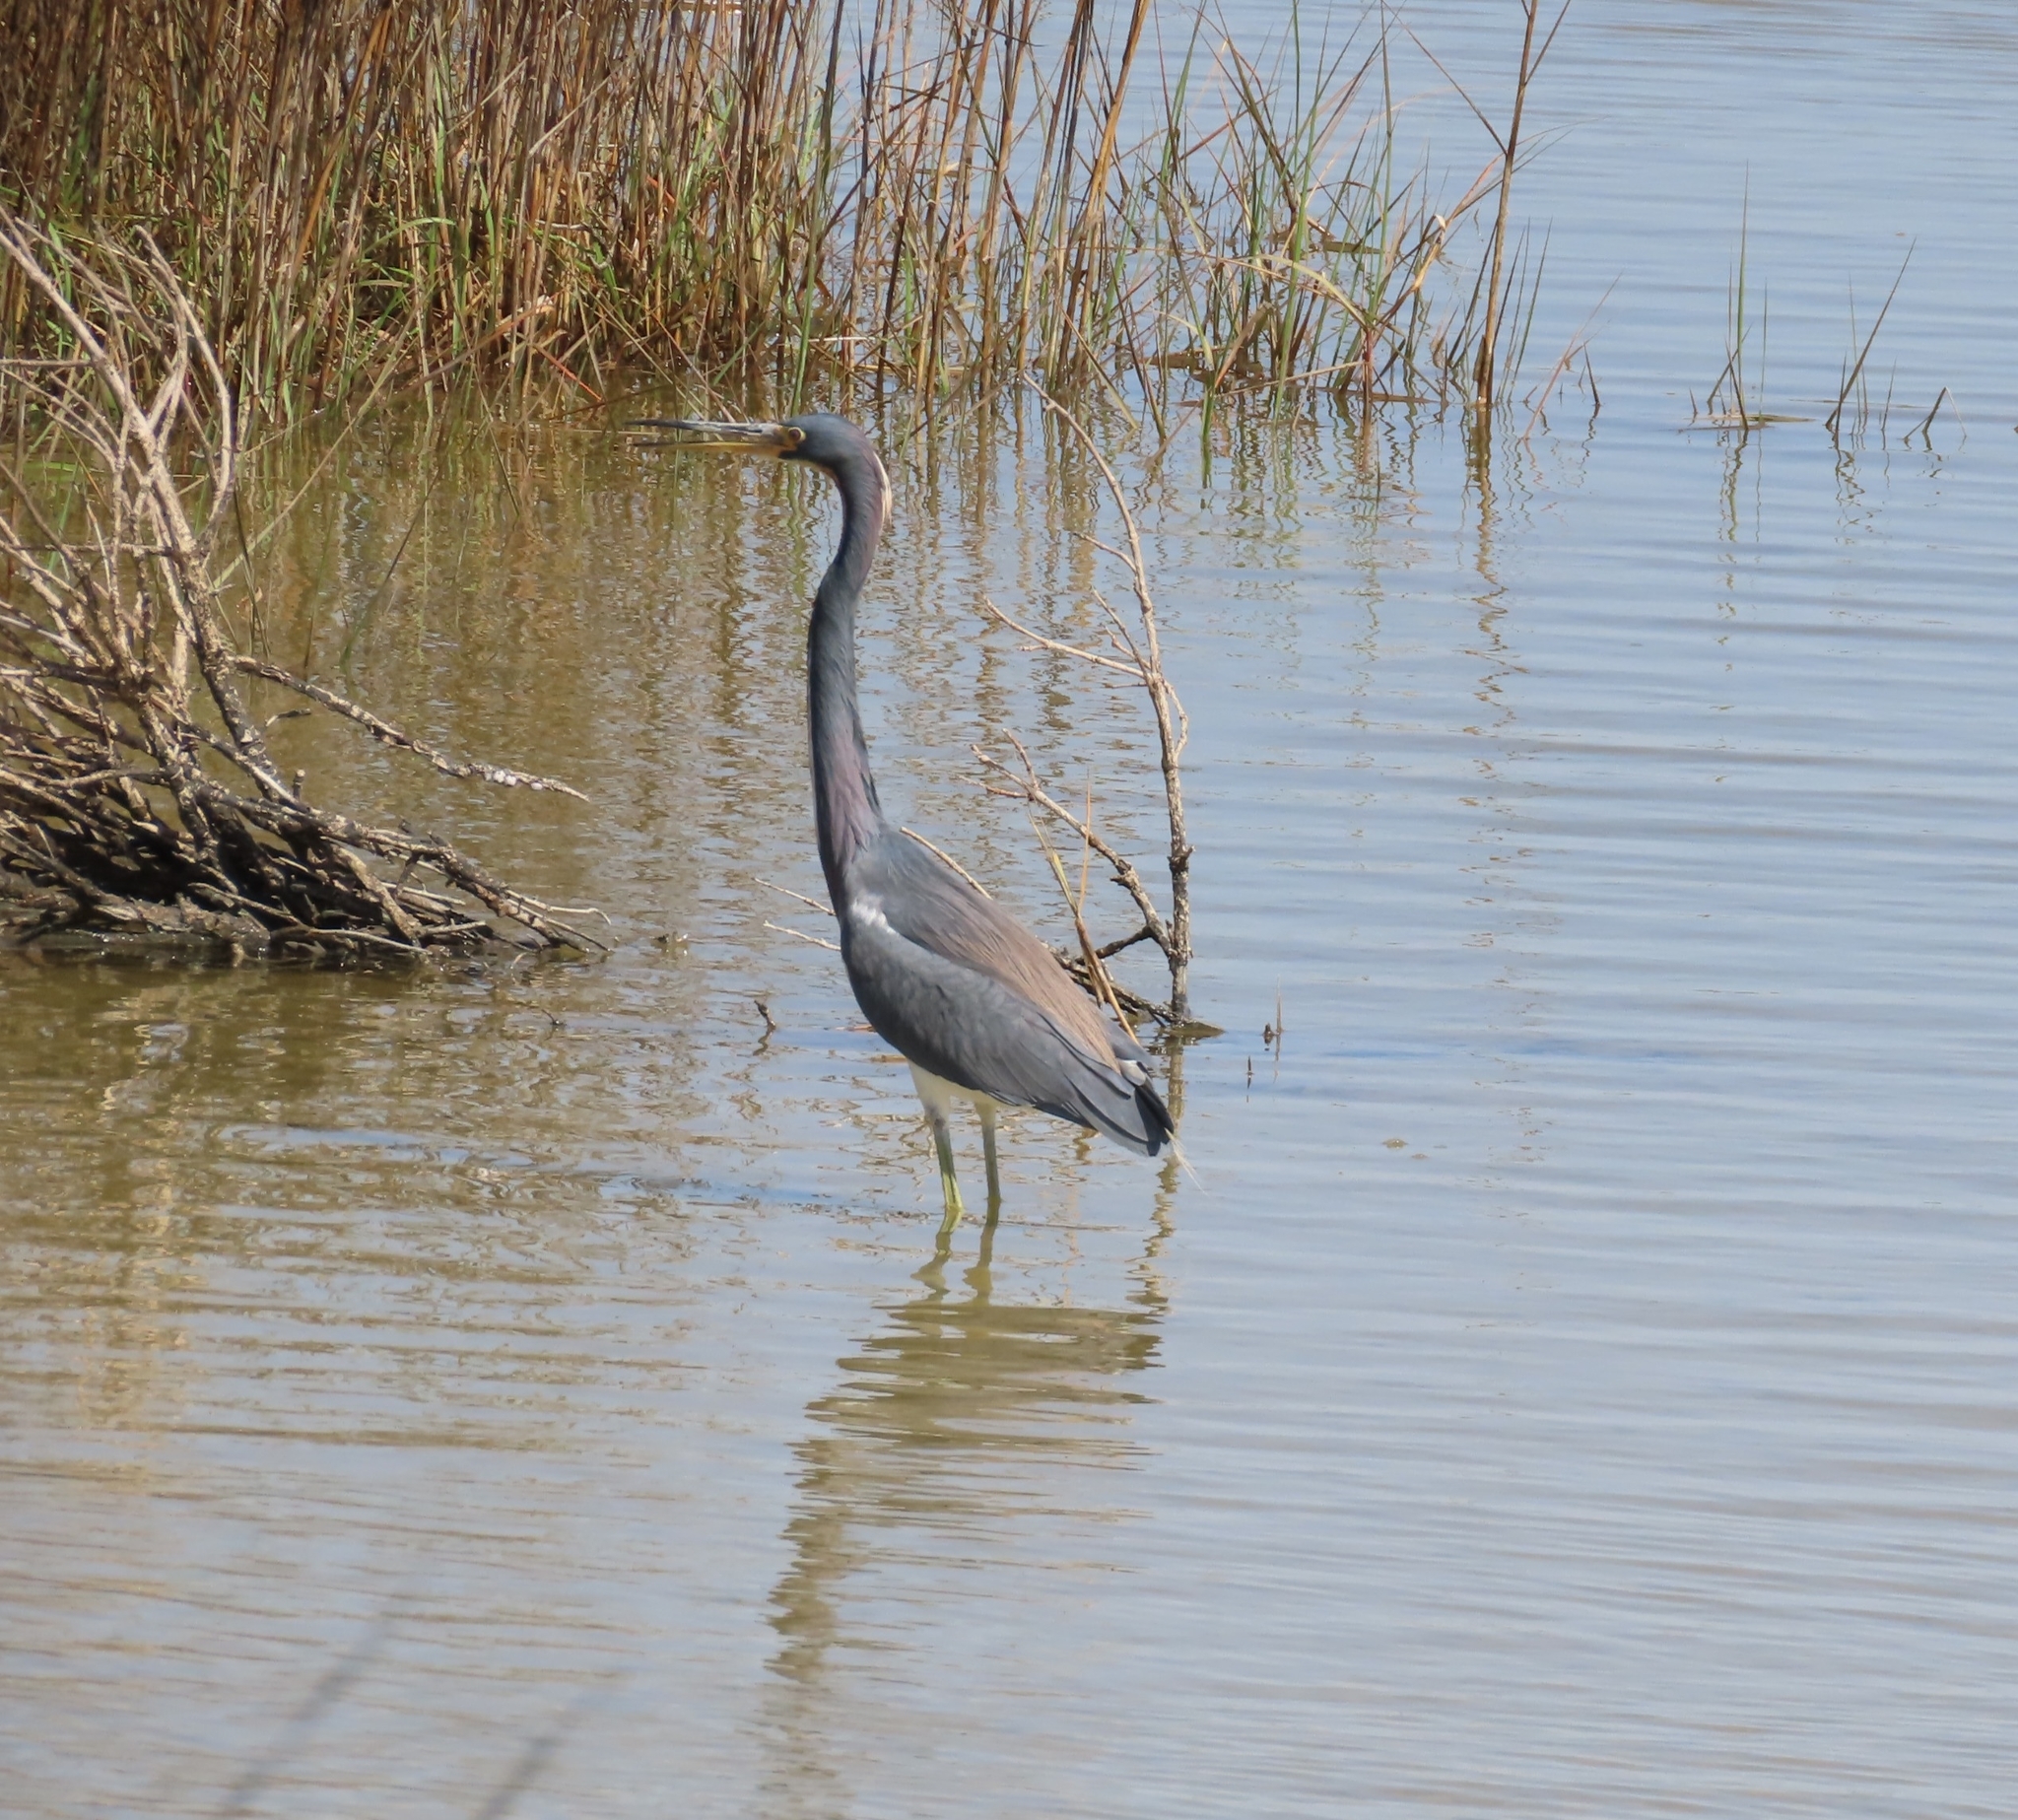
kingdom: Animalia
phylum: Chordata
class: Aves
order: Pelecaniformes
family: Ardeidae
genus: Egretta
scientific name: Egretta tricolor
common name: Tricolored heron
